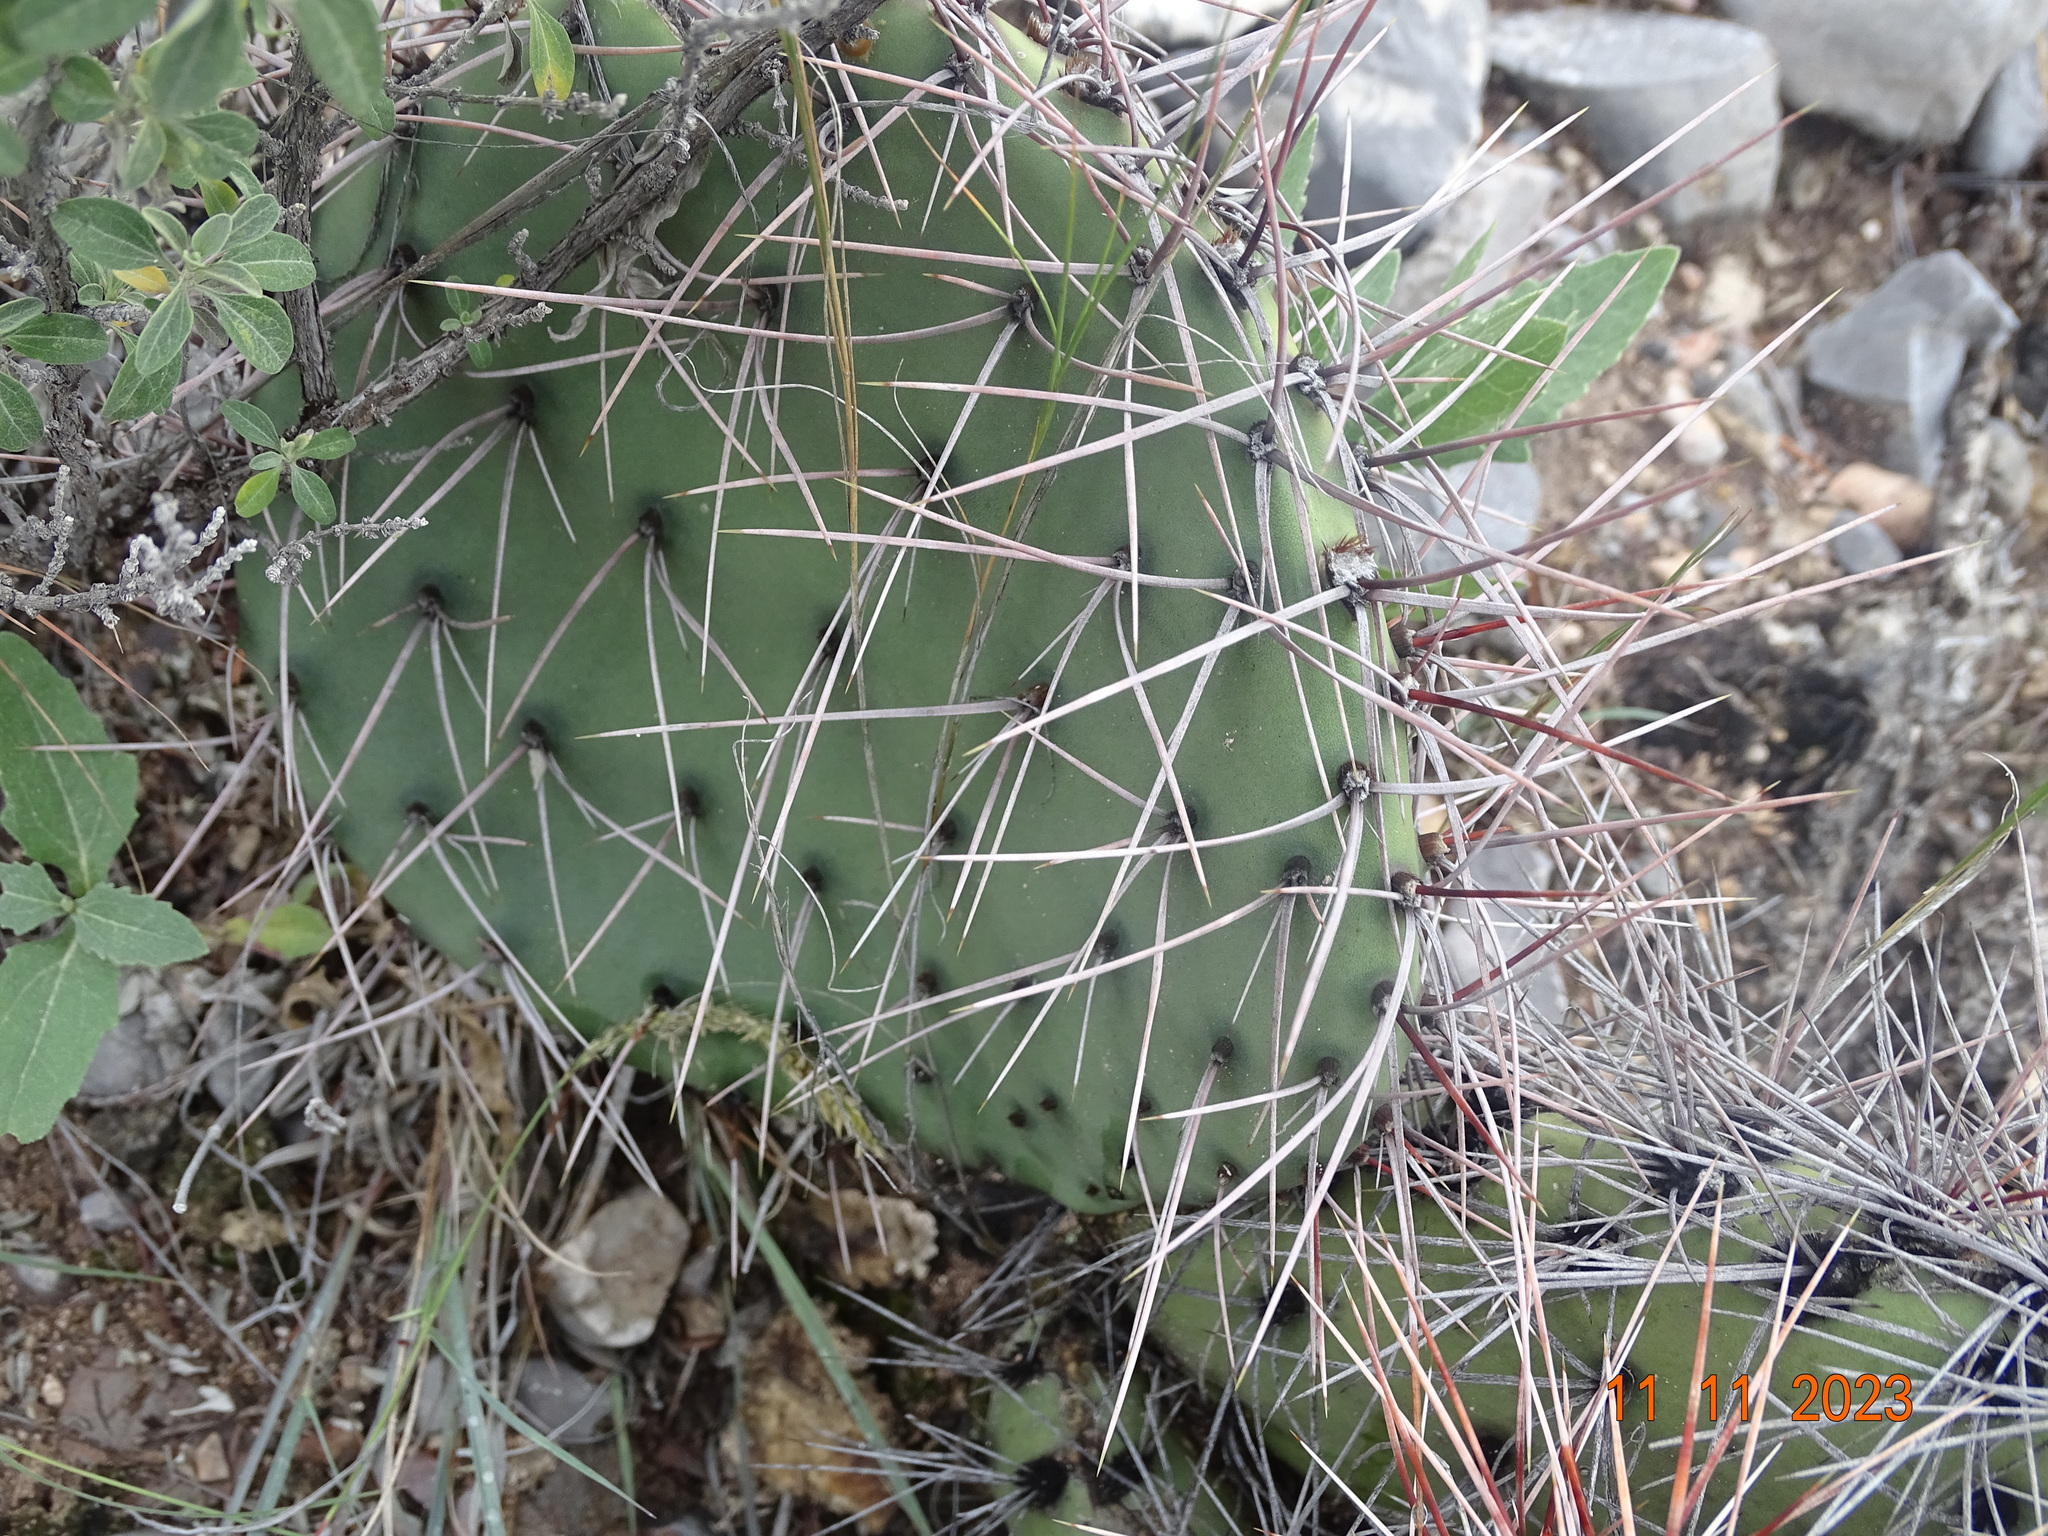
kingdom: Plantae
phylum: Tracheophyta
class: Magnoliopsida
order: Caryophyllales
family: Cactaceae
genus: Opuntia
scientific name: Opuntia stenopetala
